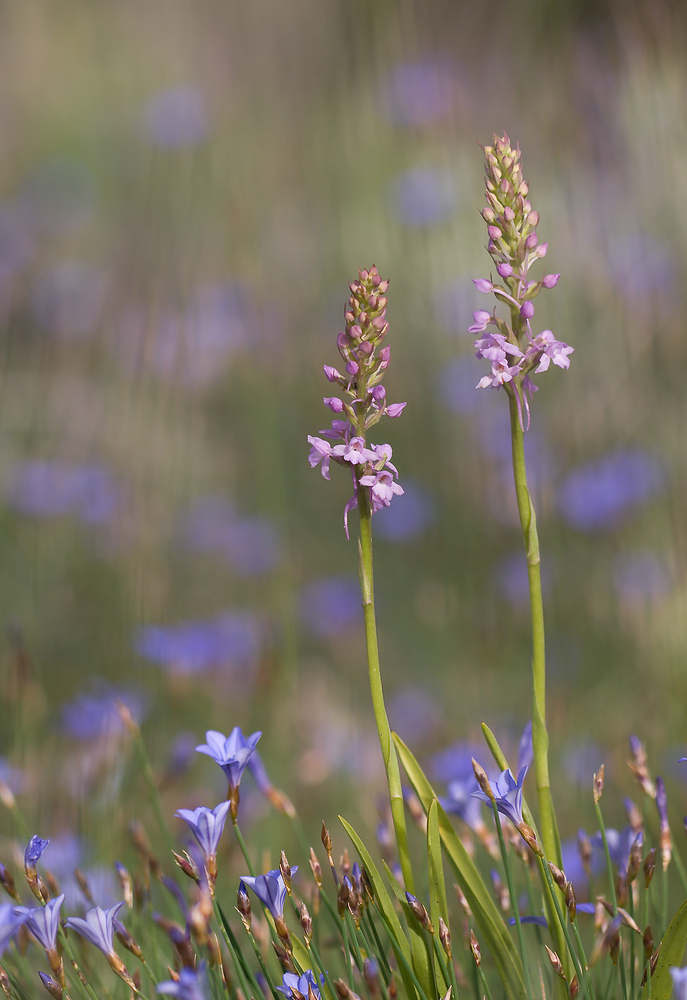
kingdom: Plantae
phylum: Tracheophyta
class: Liliopsida
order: Asparagales
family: Orchidaceae
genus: Gymnadenia
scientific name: Gymnadenia conopsea
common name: Fragrant orchid
